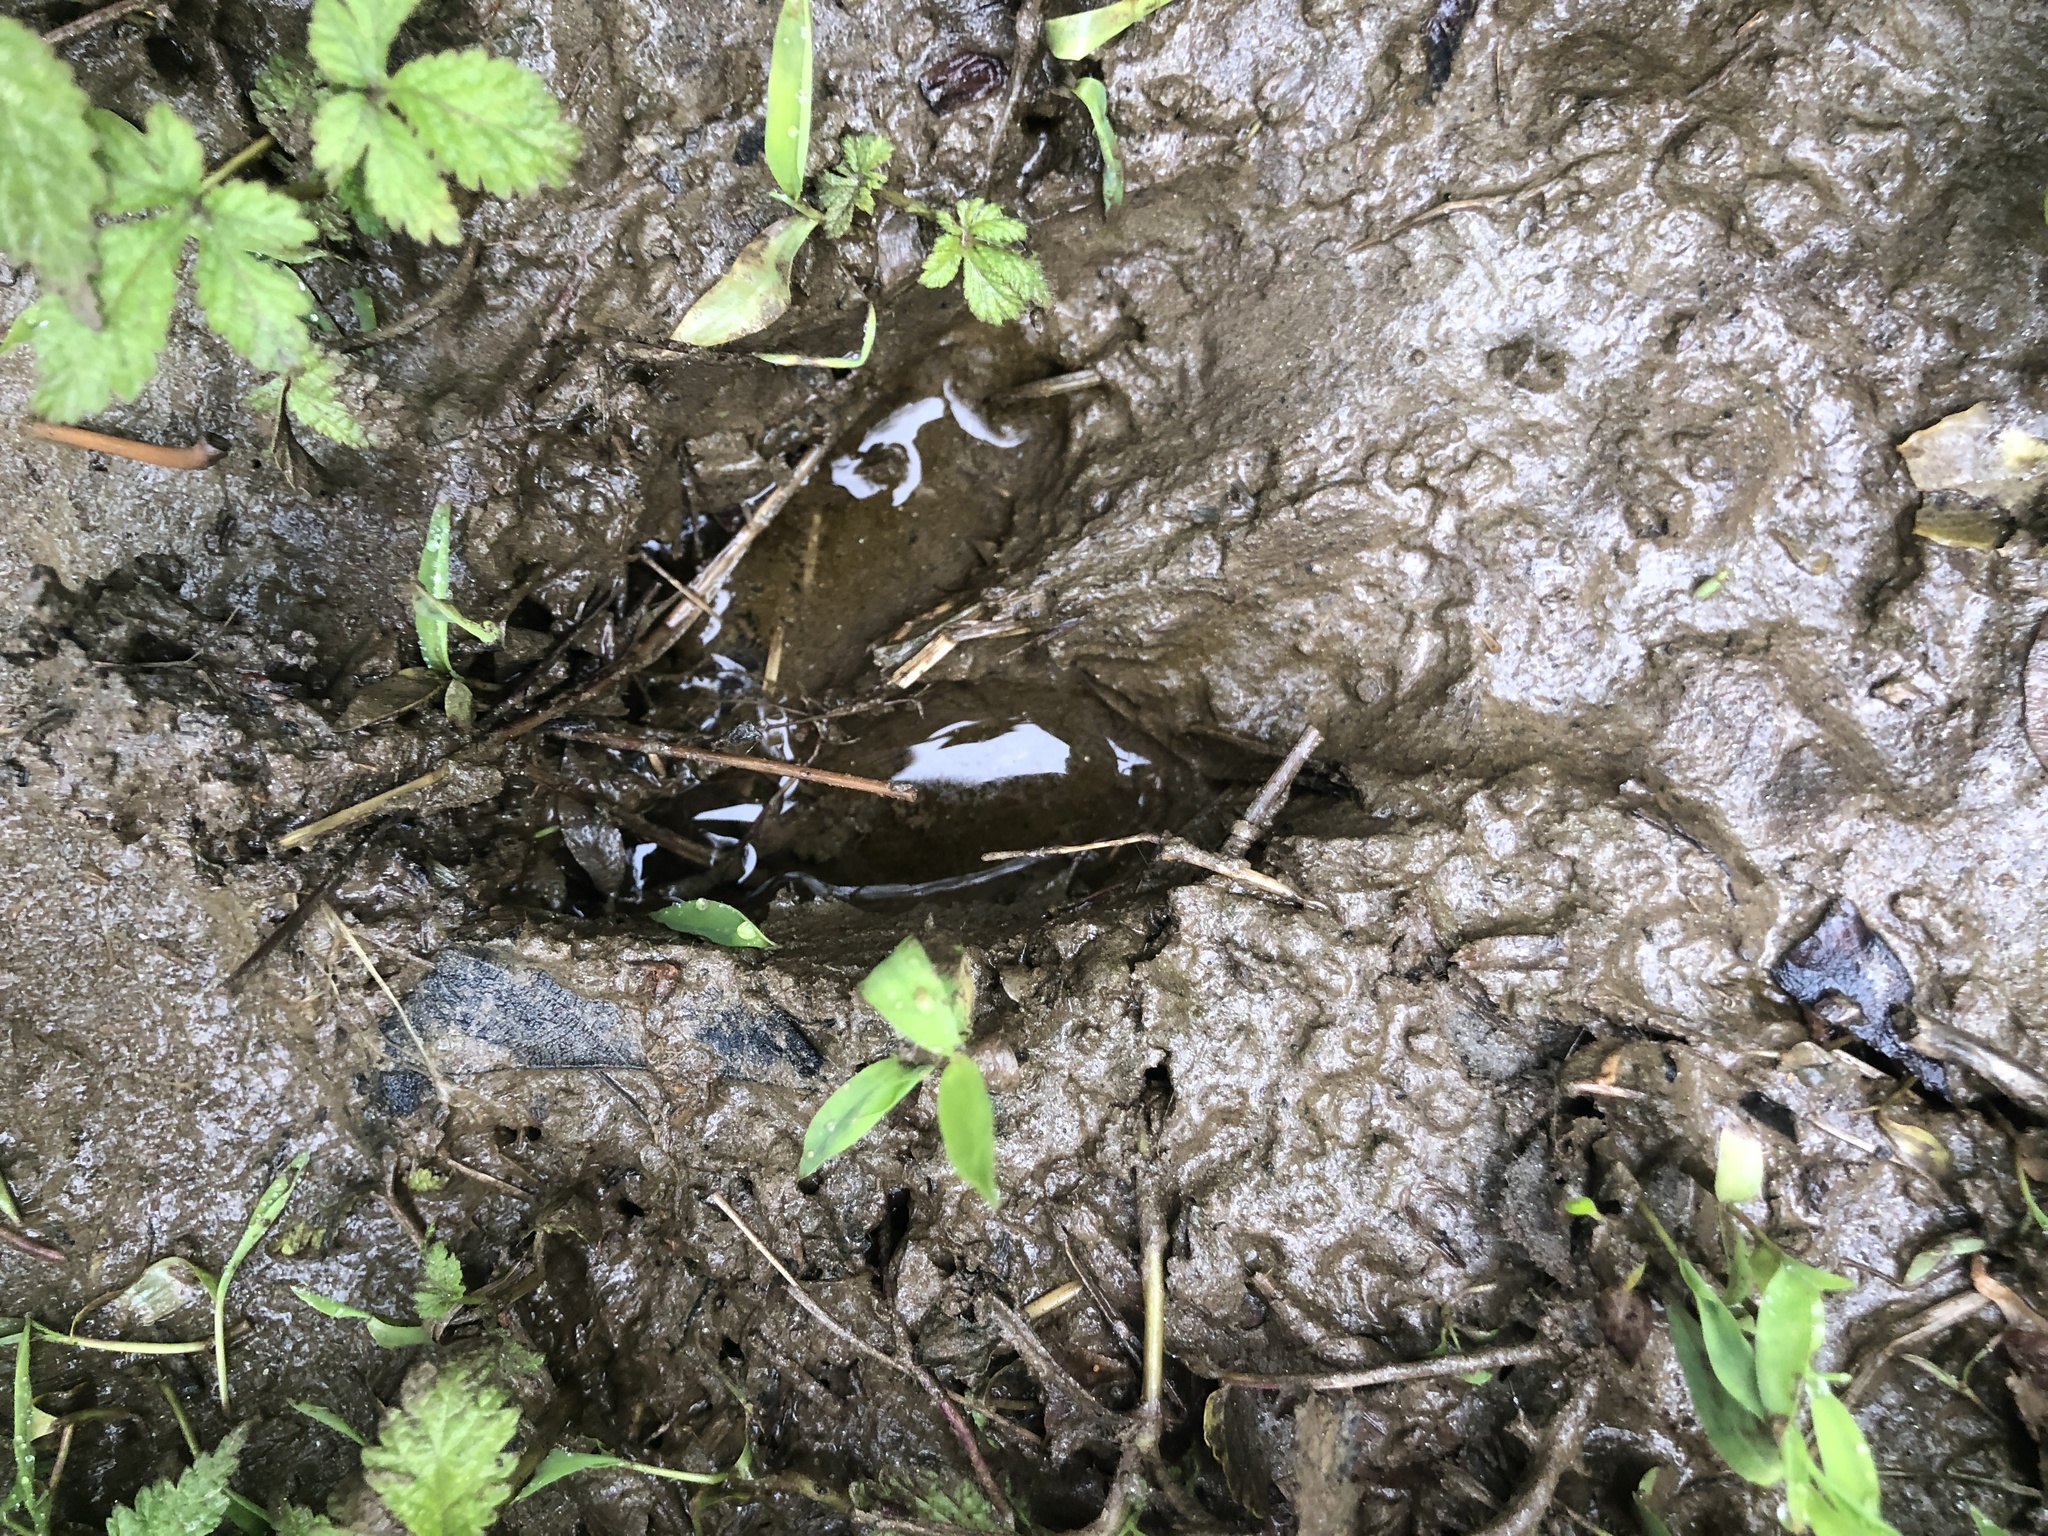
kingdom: Animalia
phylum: Chordata
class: Mammalia
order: Artiodactyla
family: Cervidae
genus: Odocoileus
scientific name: Odocoileus virginianus
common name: White-tailed deer
